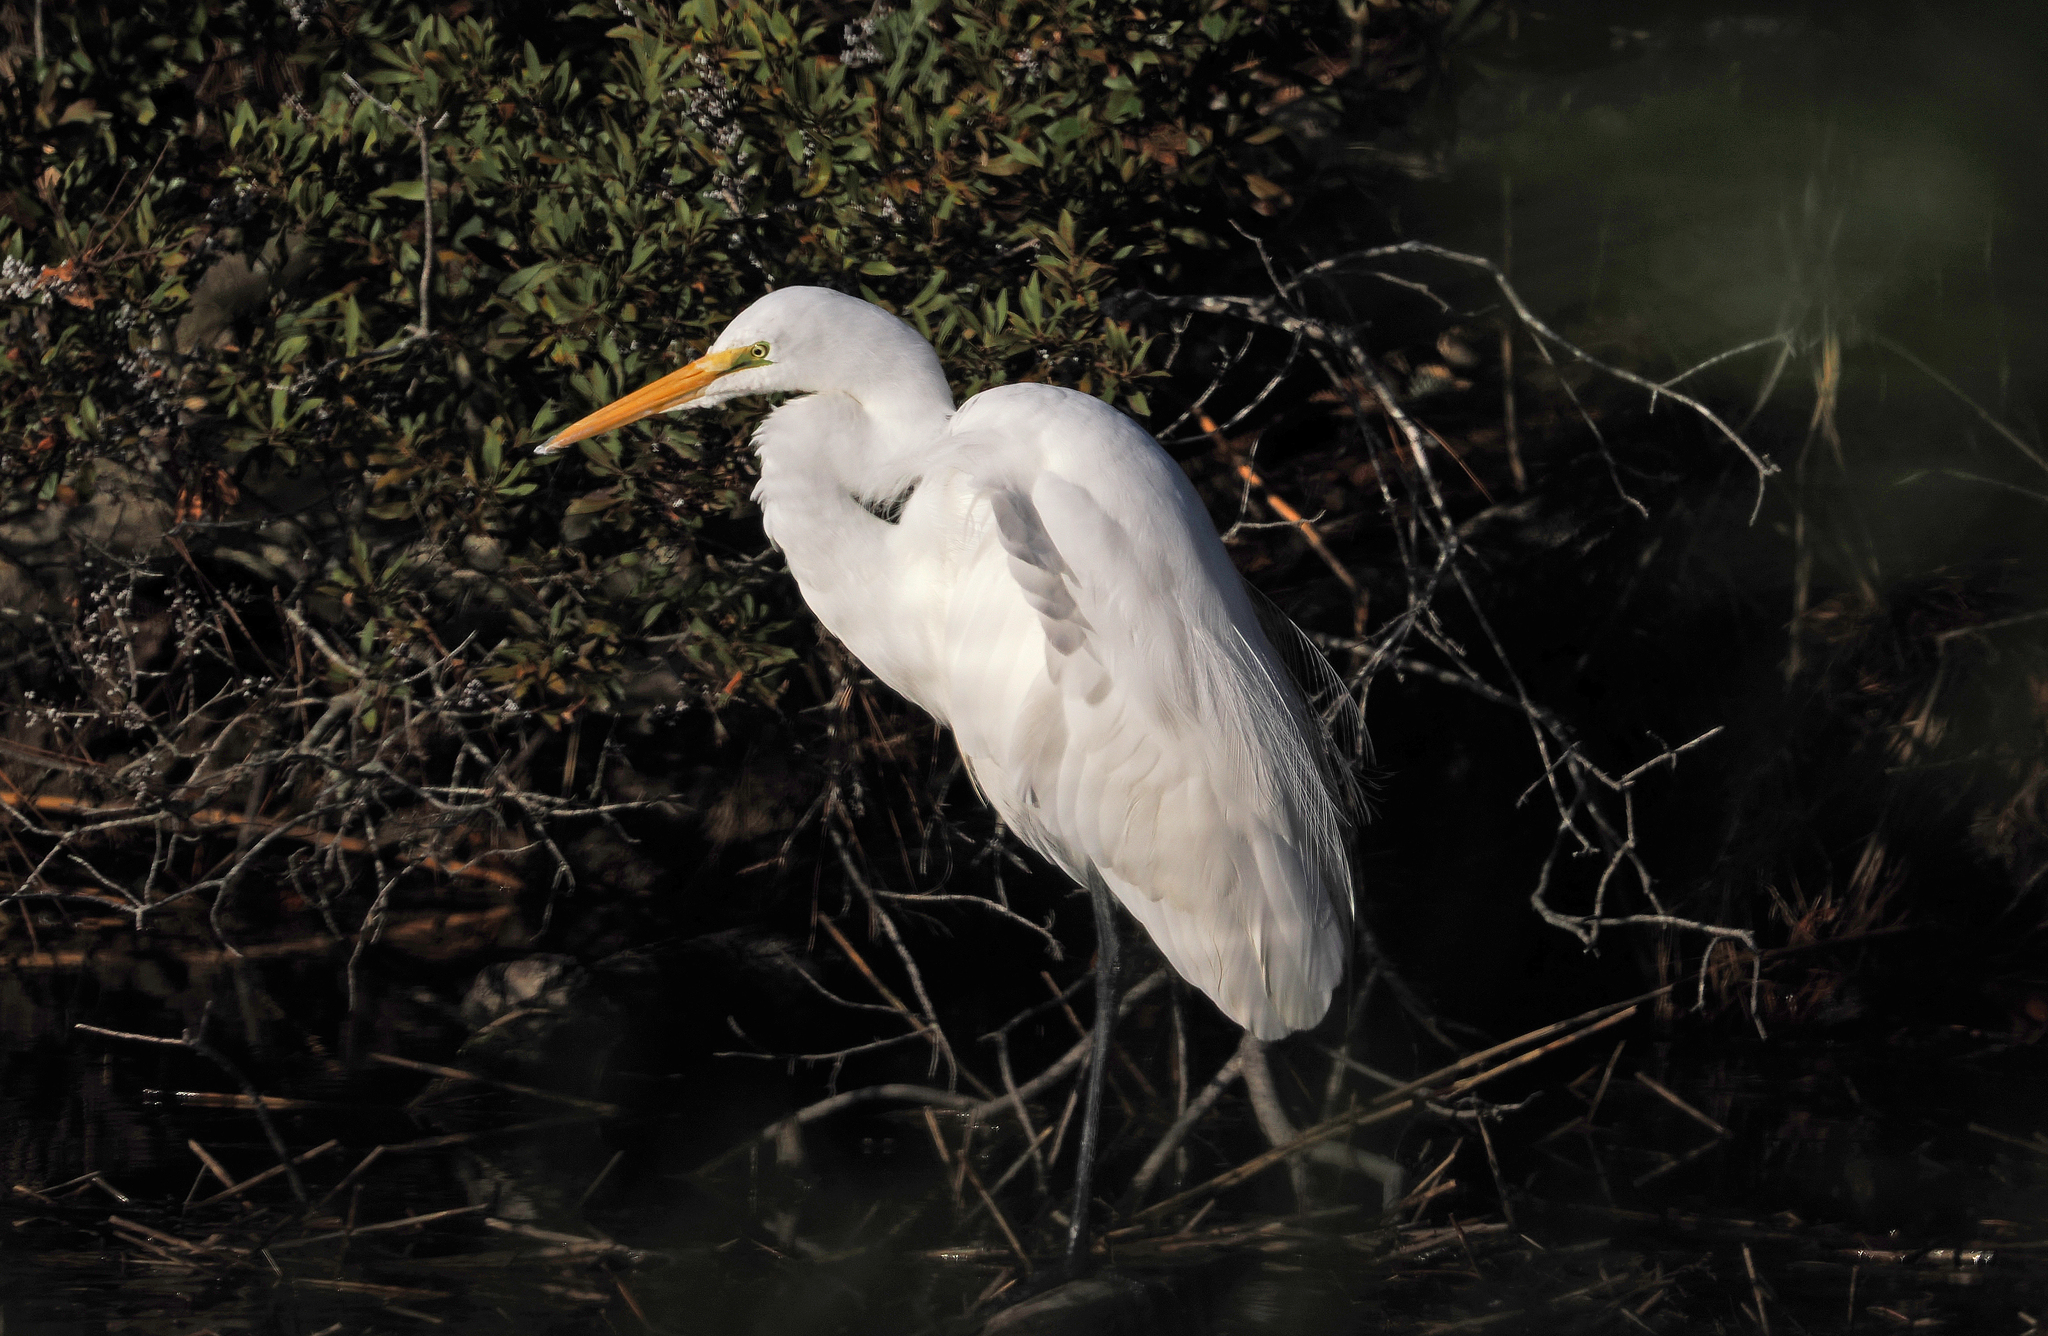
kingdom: Animalia
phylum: Chordata
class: Aves
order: Pelecaniformes
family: Ardeidae
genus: Ardea
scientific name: Ardea alba
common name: Great egret
